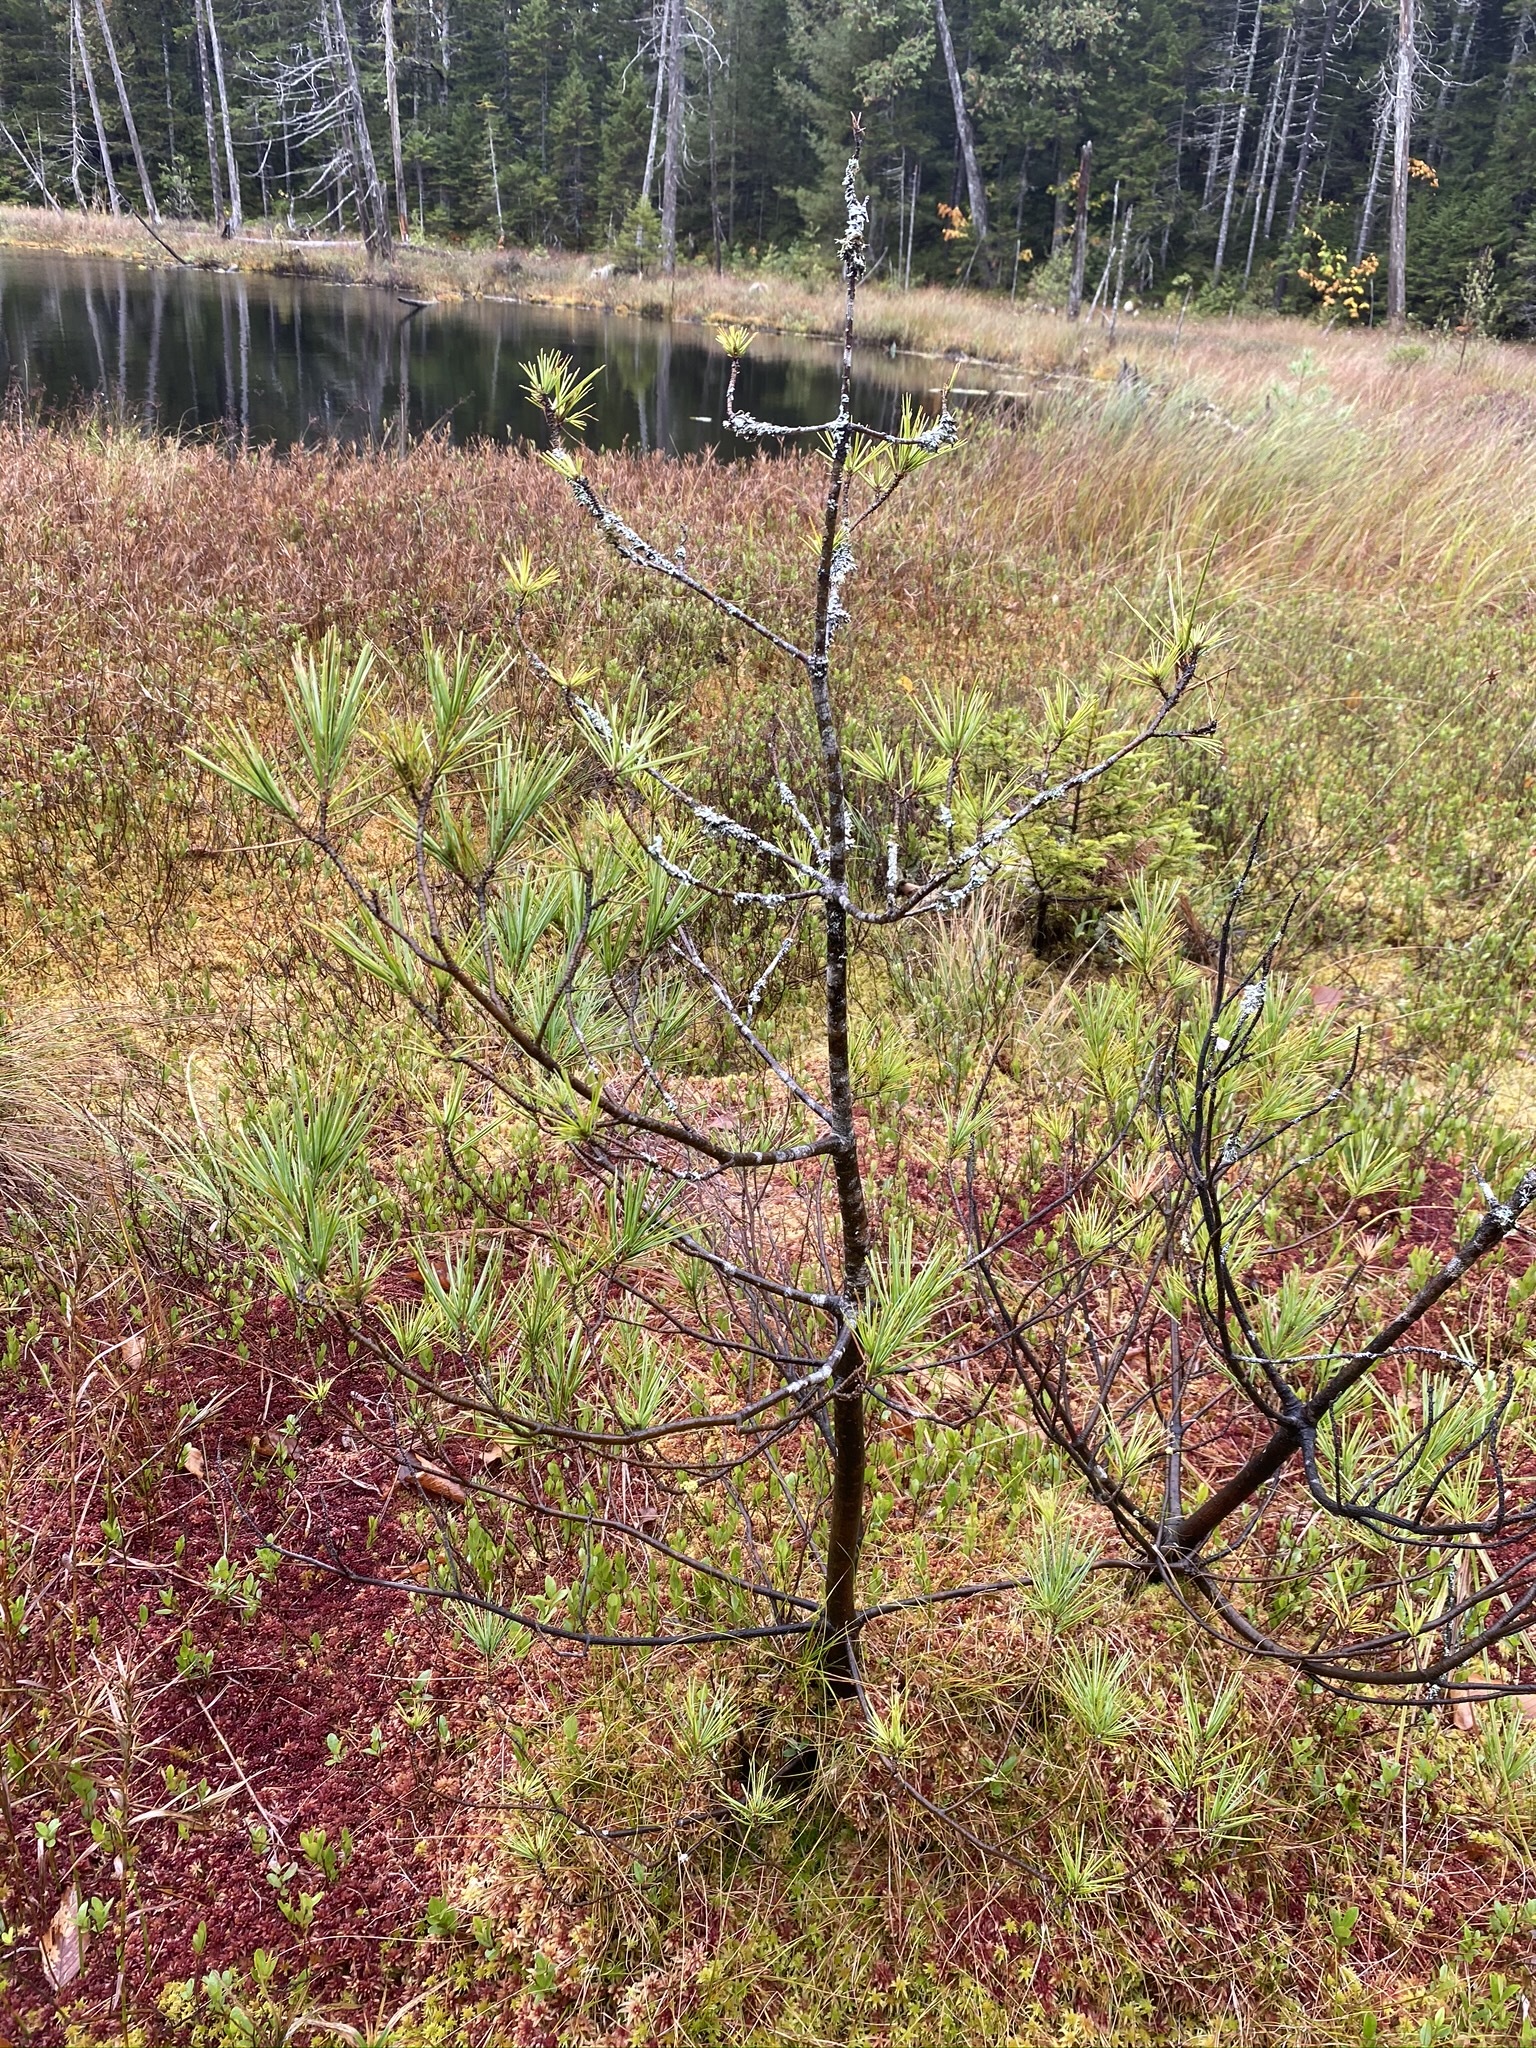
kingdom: Plantae
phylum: Tracheophyta
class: Pinopsida
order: Pinales
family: Pinaceae
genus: Pinus
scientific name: Pinus strobus
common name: Weymouth pine
